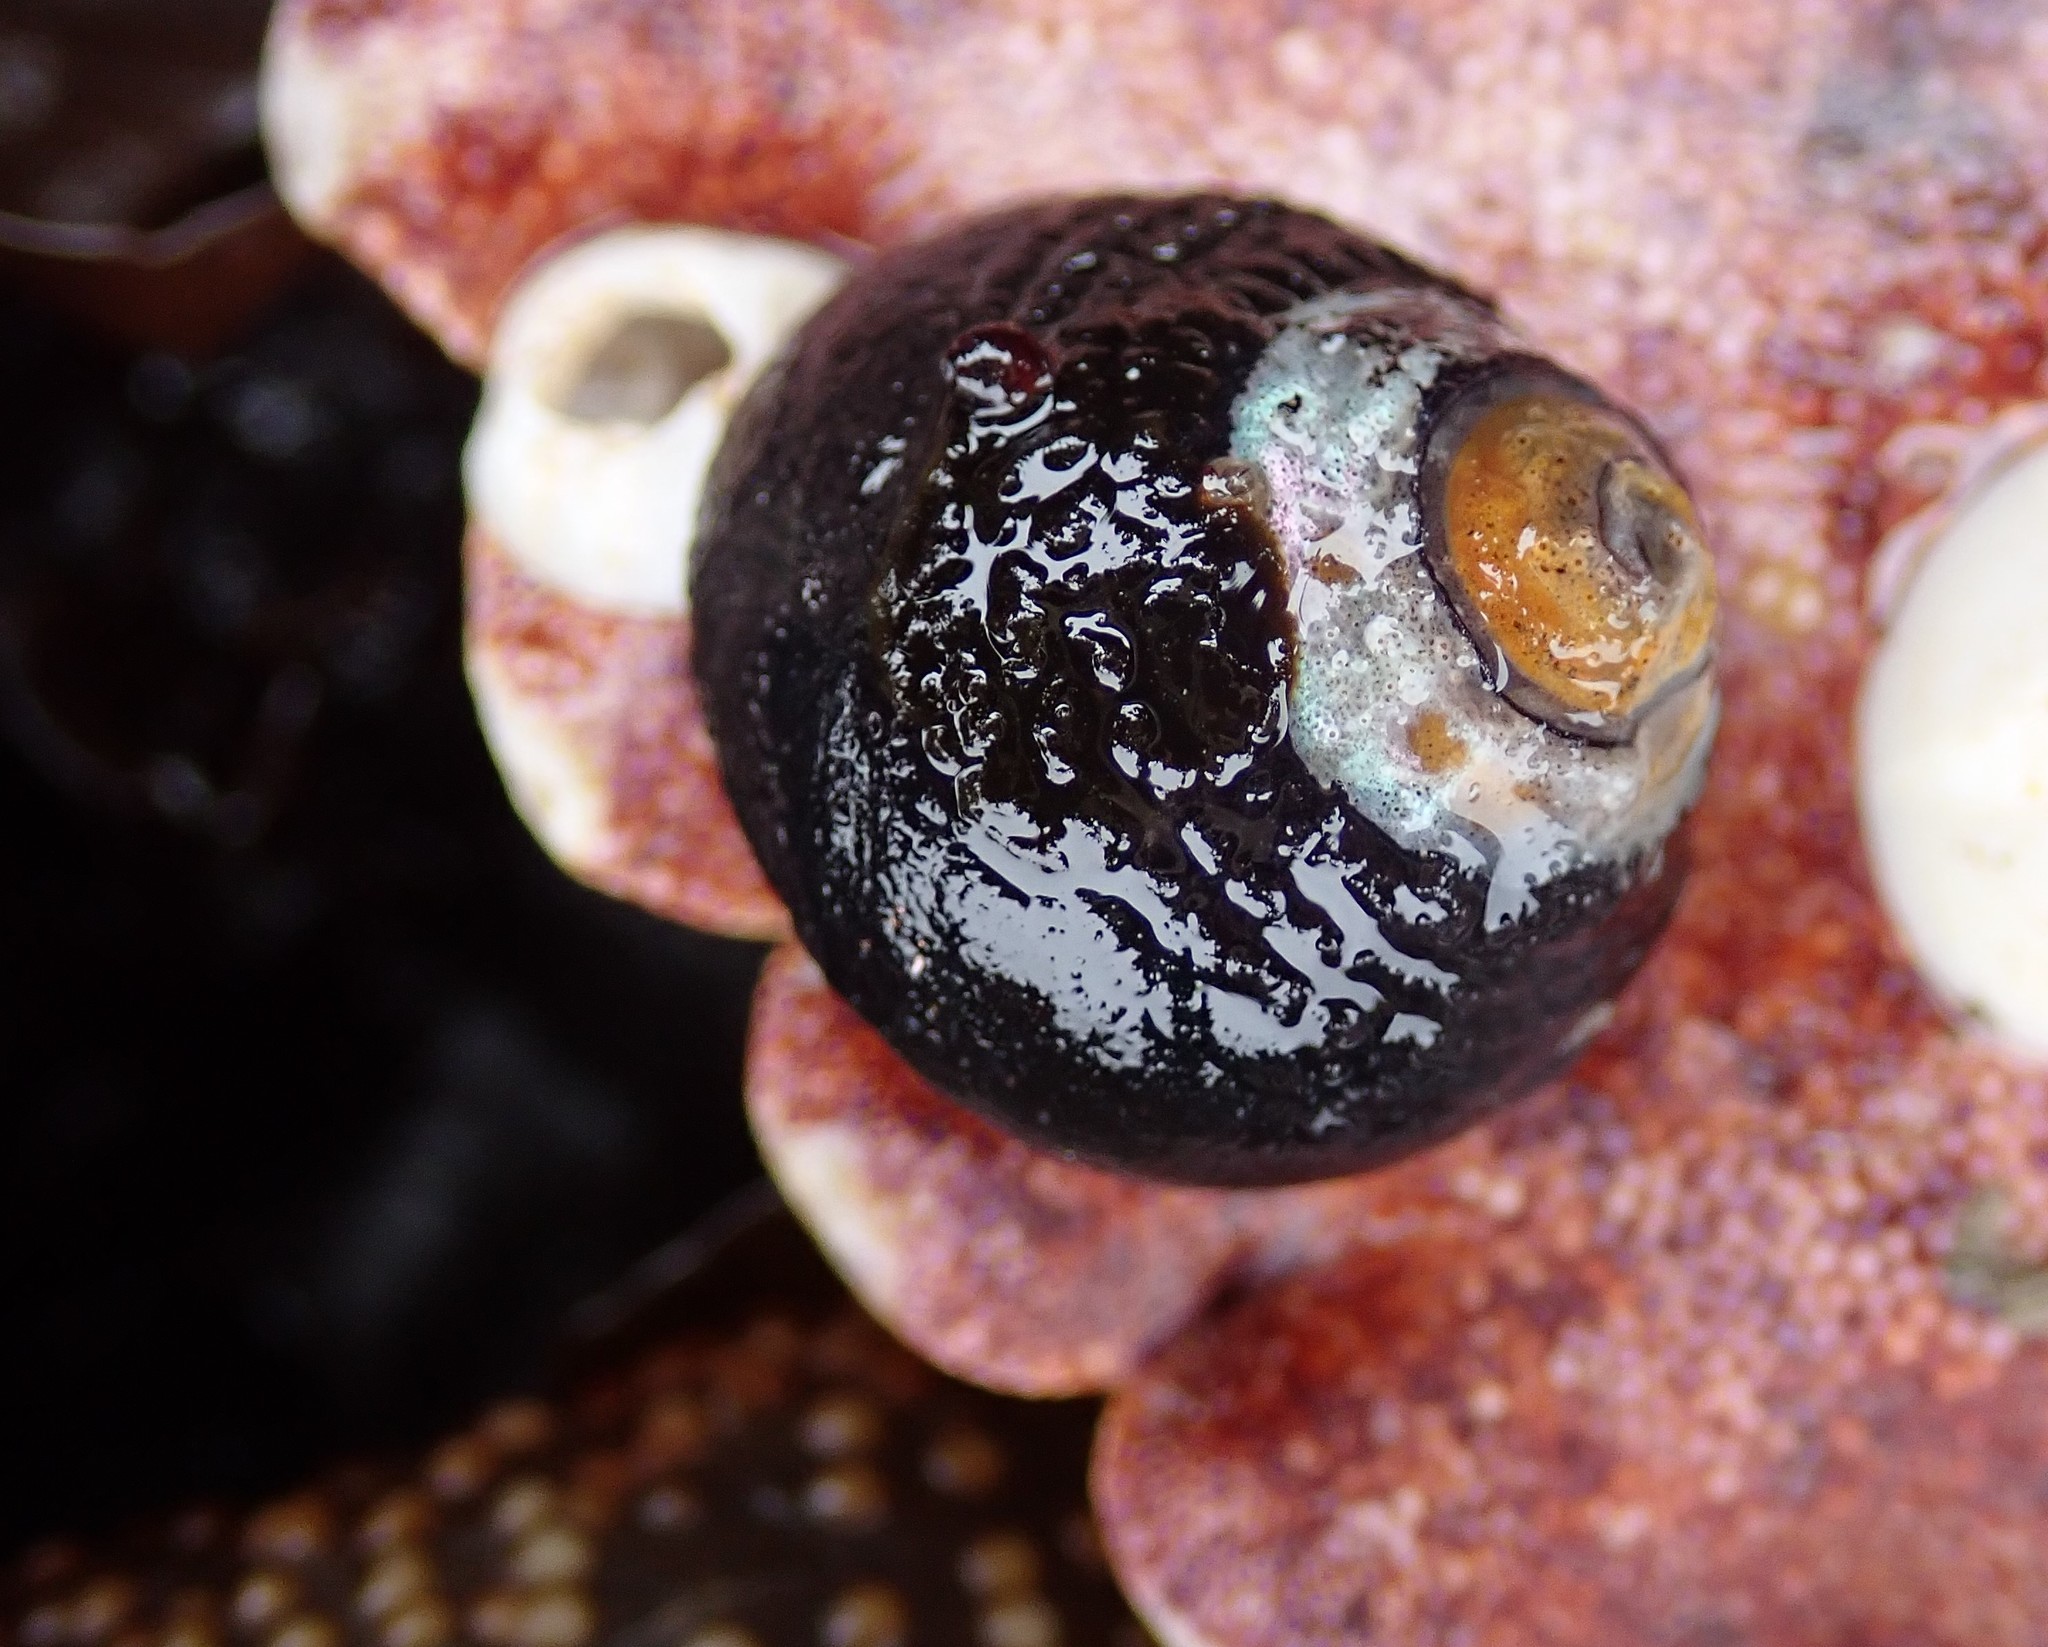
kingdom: Animalia
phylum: Mollusca
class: Gastropoda
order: Trochida
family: Tegulidae
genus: Tegula
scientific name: Tegula funebralis
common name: Black tegula
